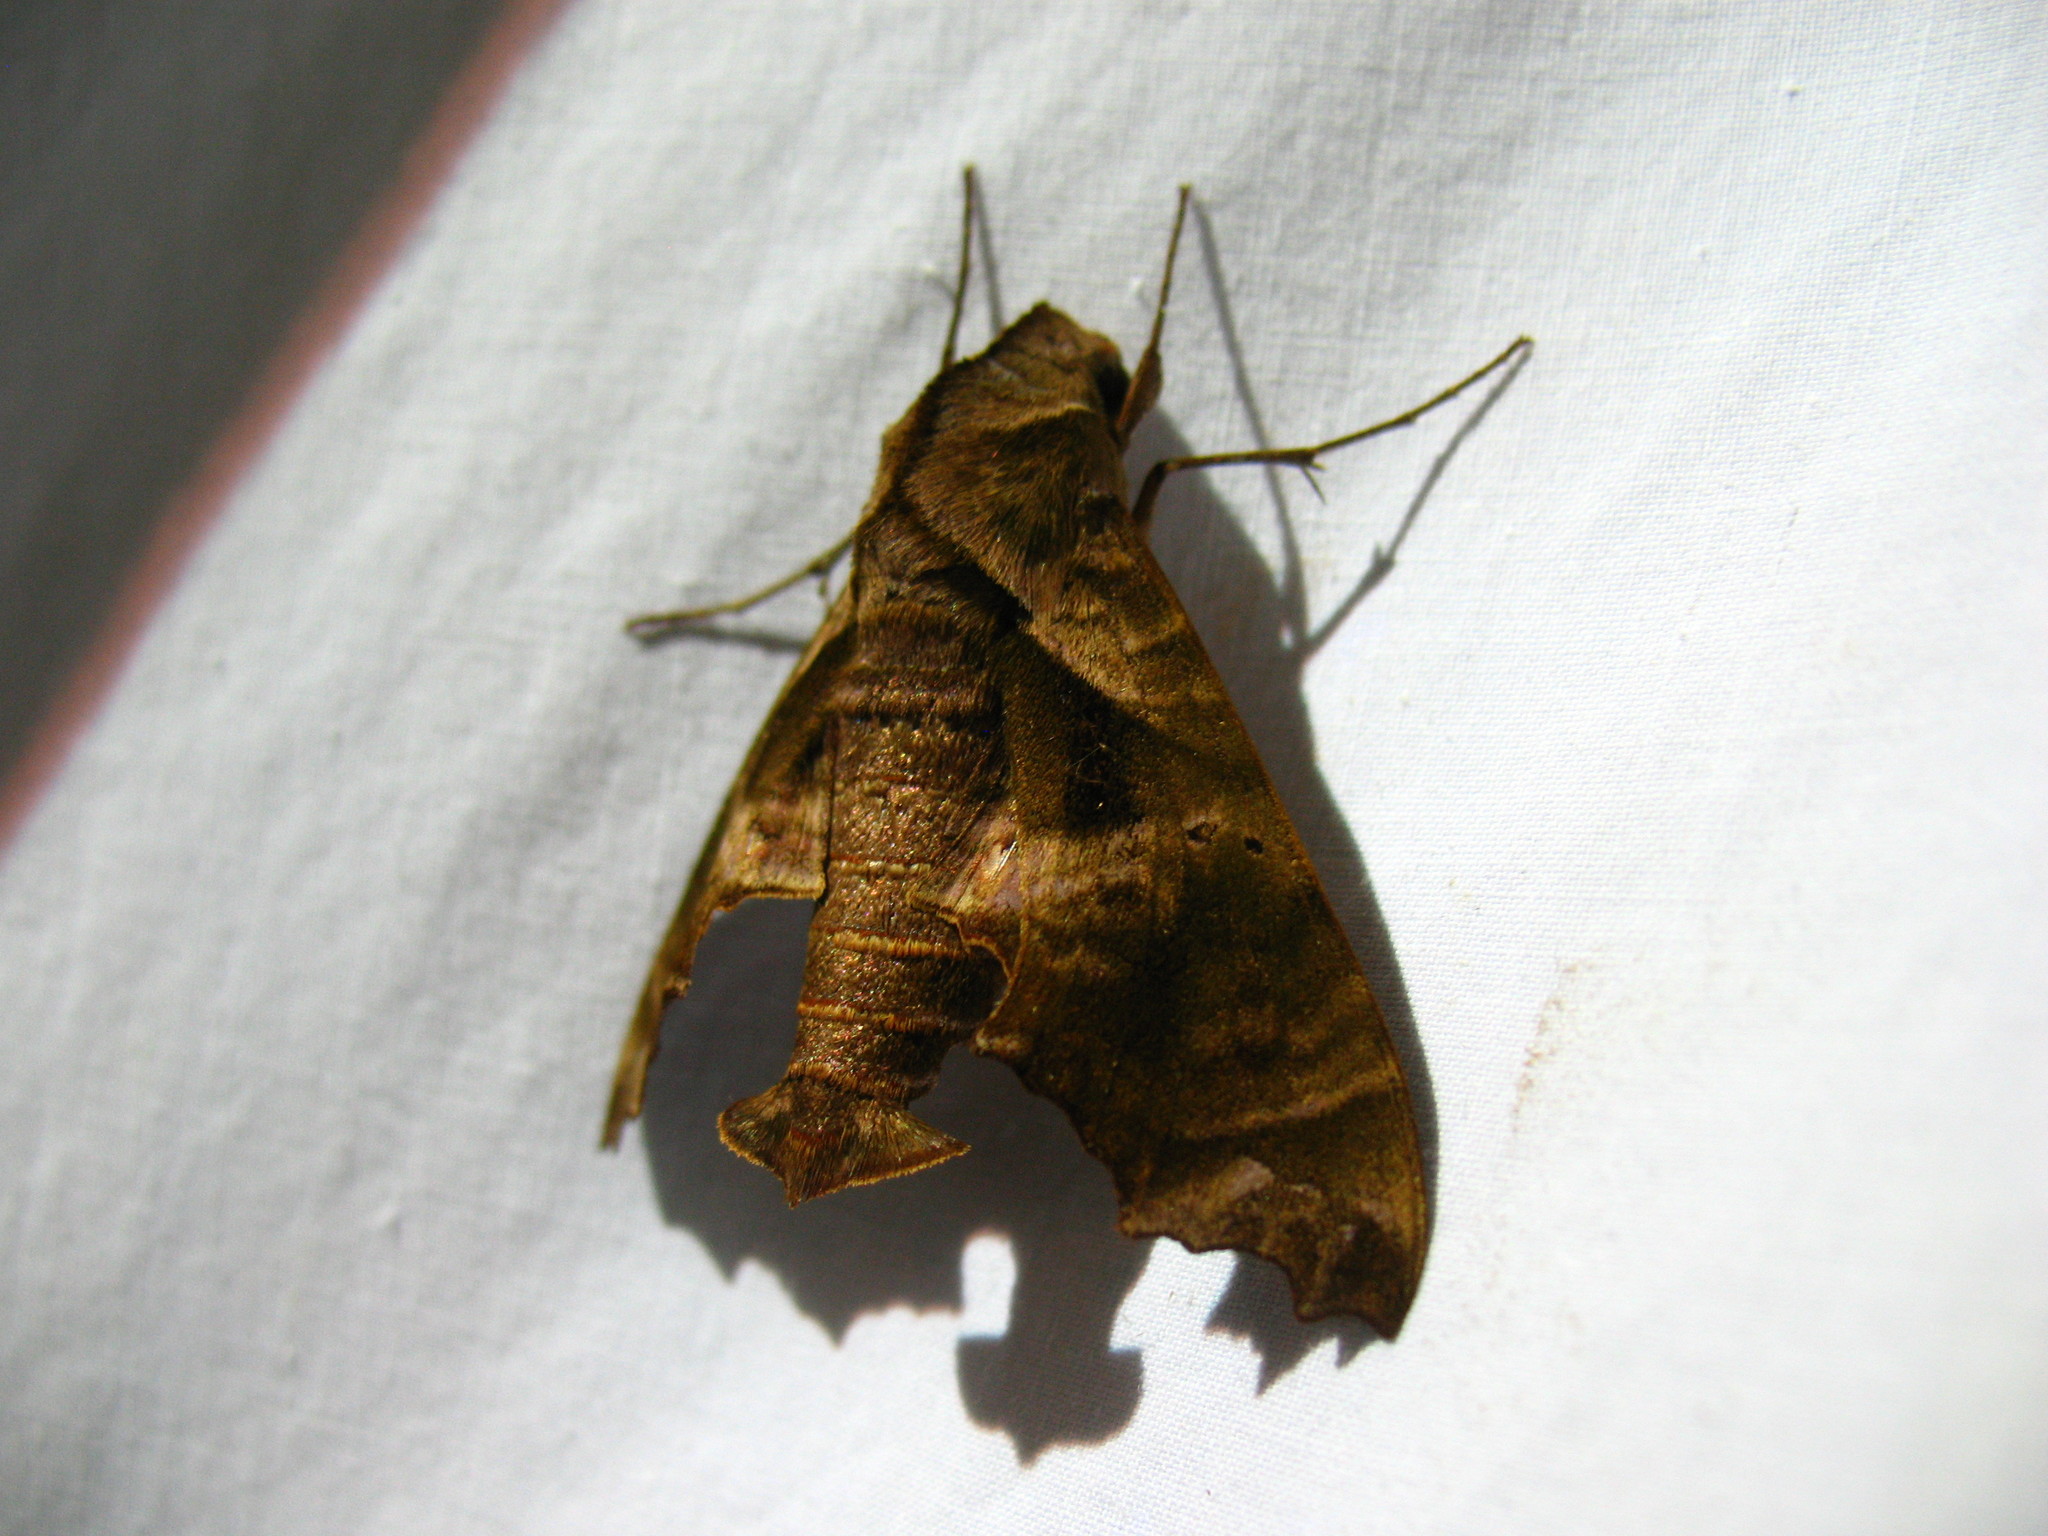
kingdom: Animalia
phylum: Arthropoda
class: Insecta
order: Lepidoptera
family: Sphingidae
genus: Nyceryx
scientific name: Nyceryx eximia
